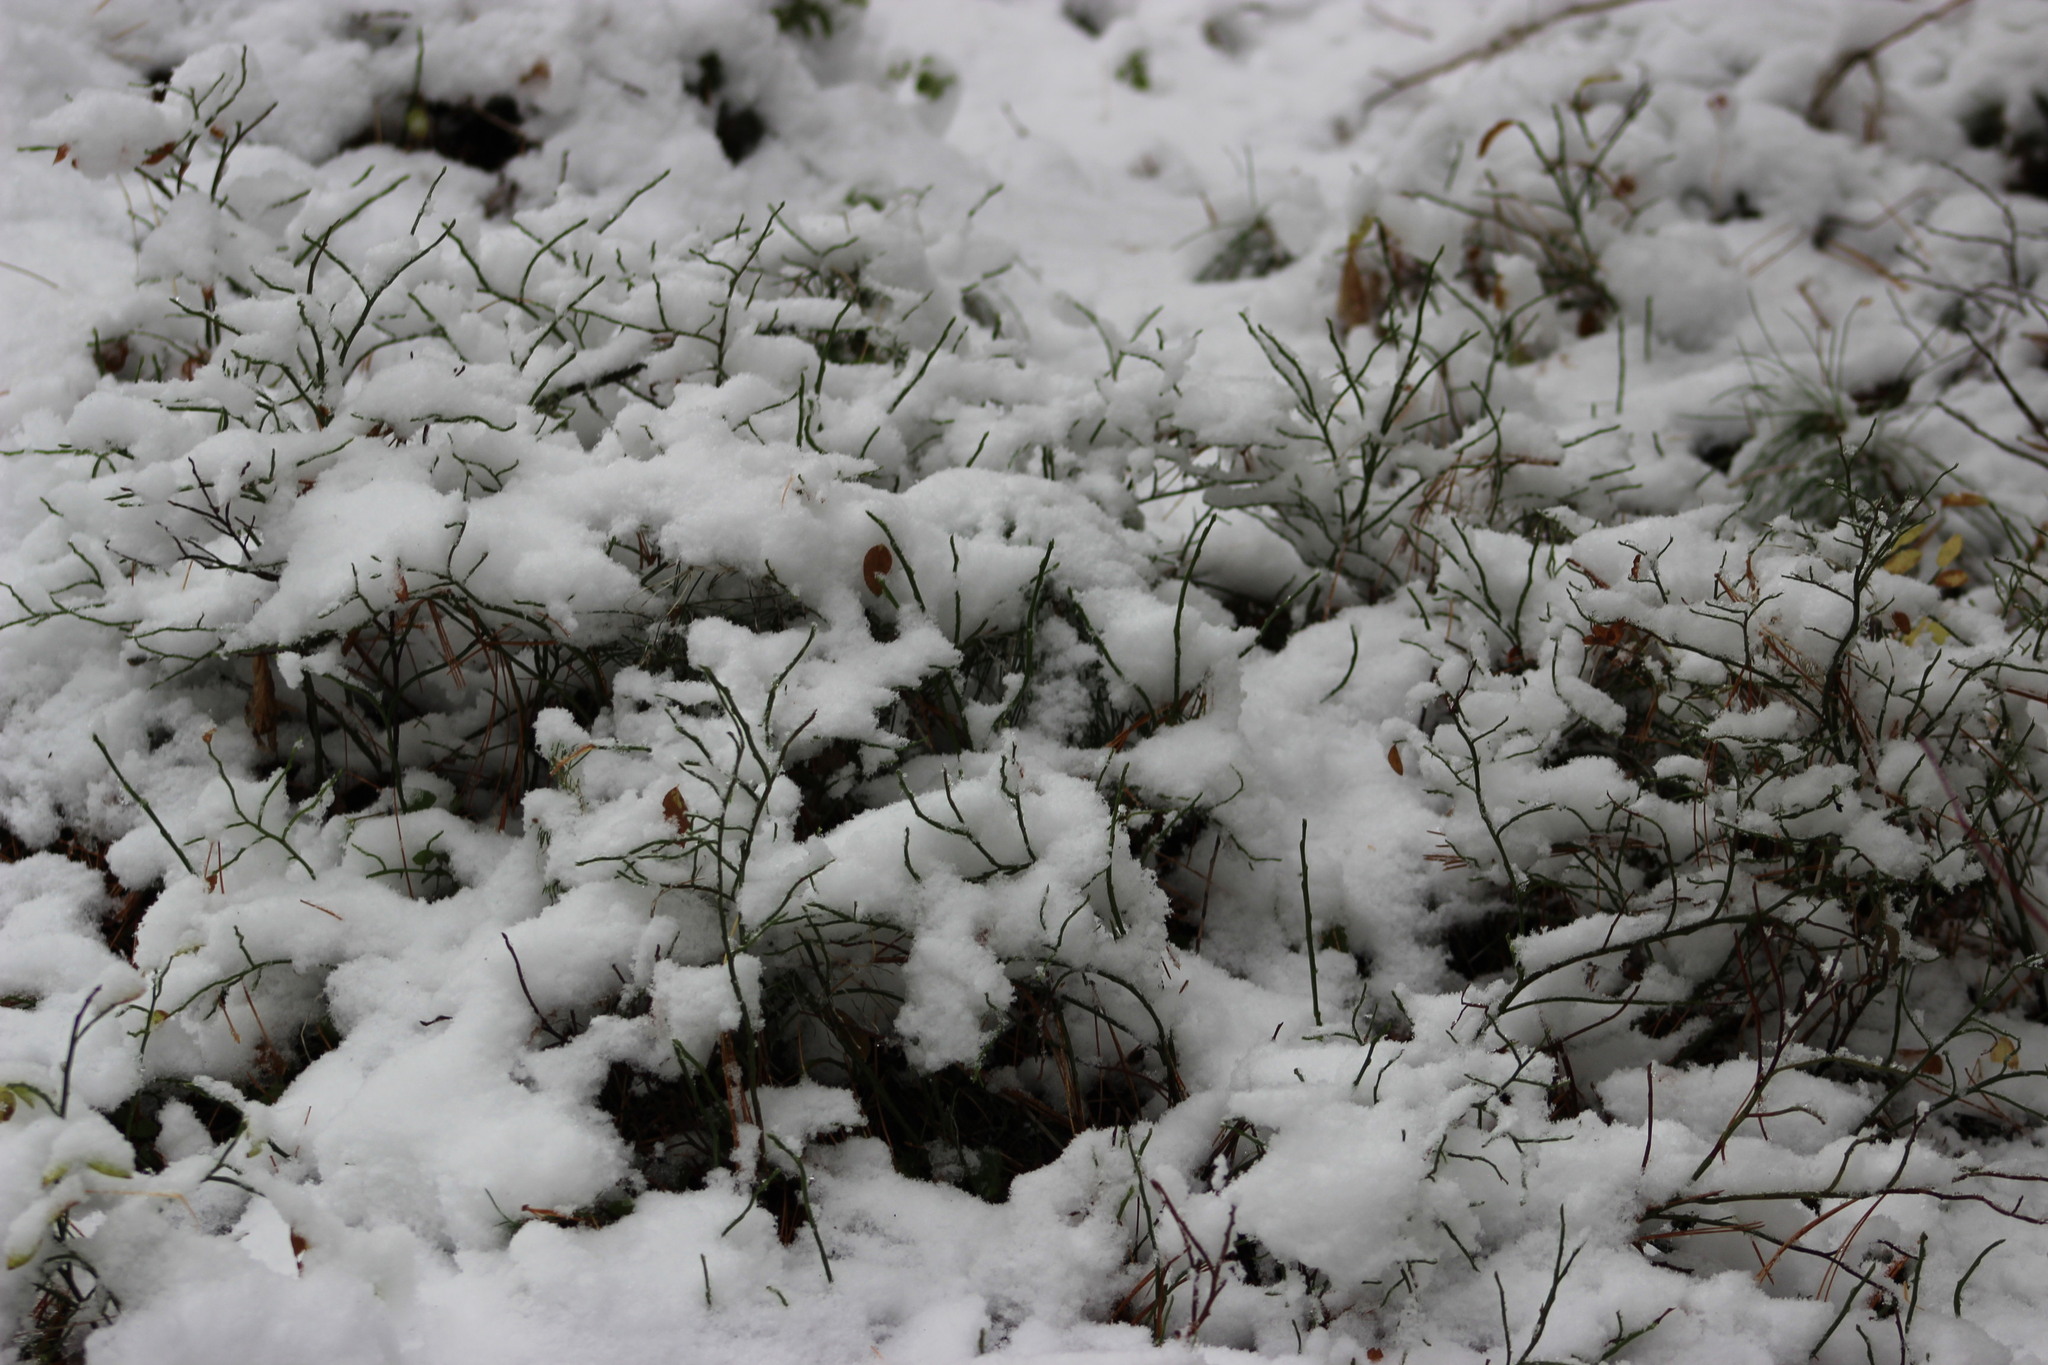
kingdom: Plantae
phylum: Tracheophyta
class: Magnoliopsida
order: Ericales
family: Ericaceae
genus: Vaccinium
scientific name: Vaccinium myrtillus
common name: Bilberry
